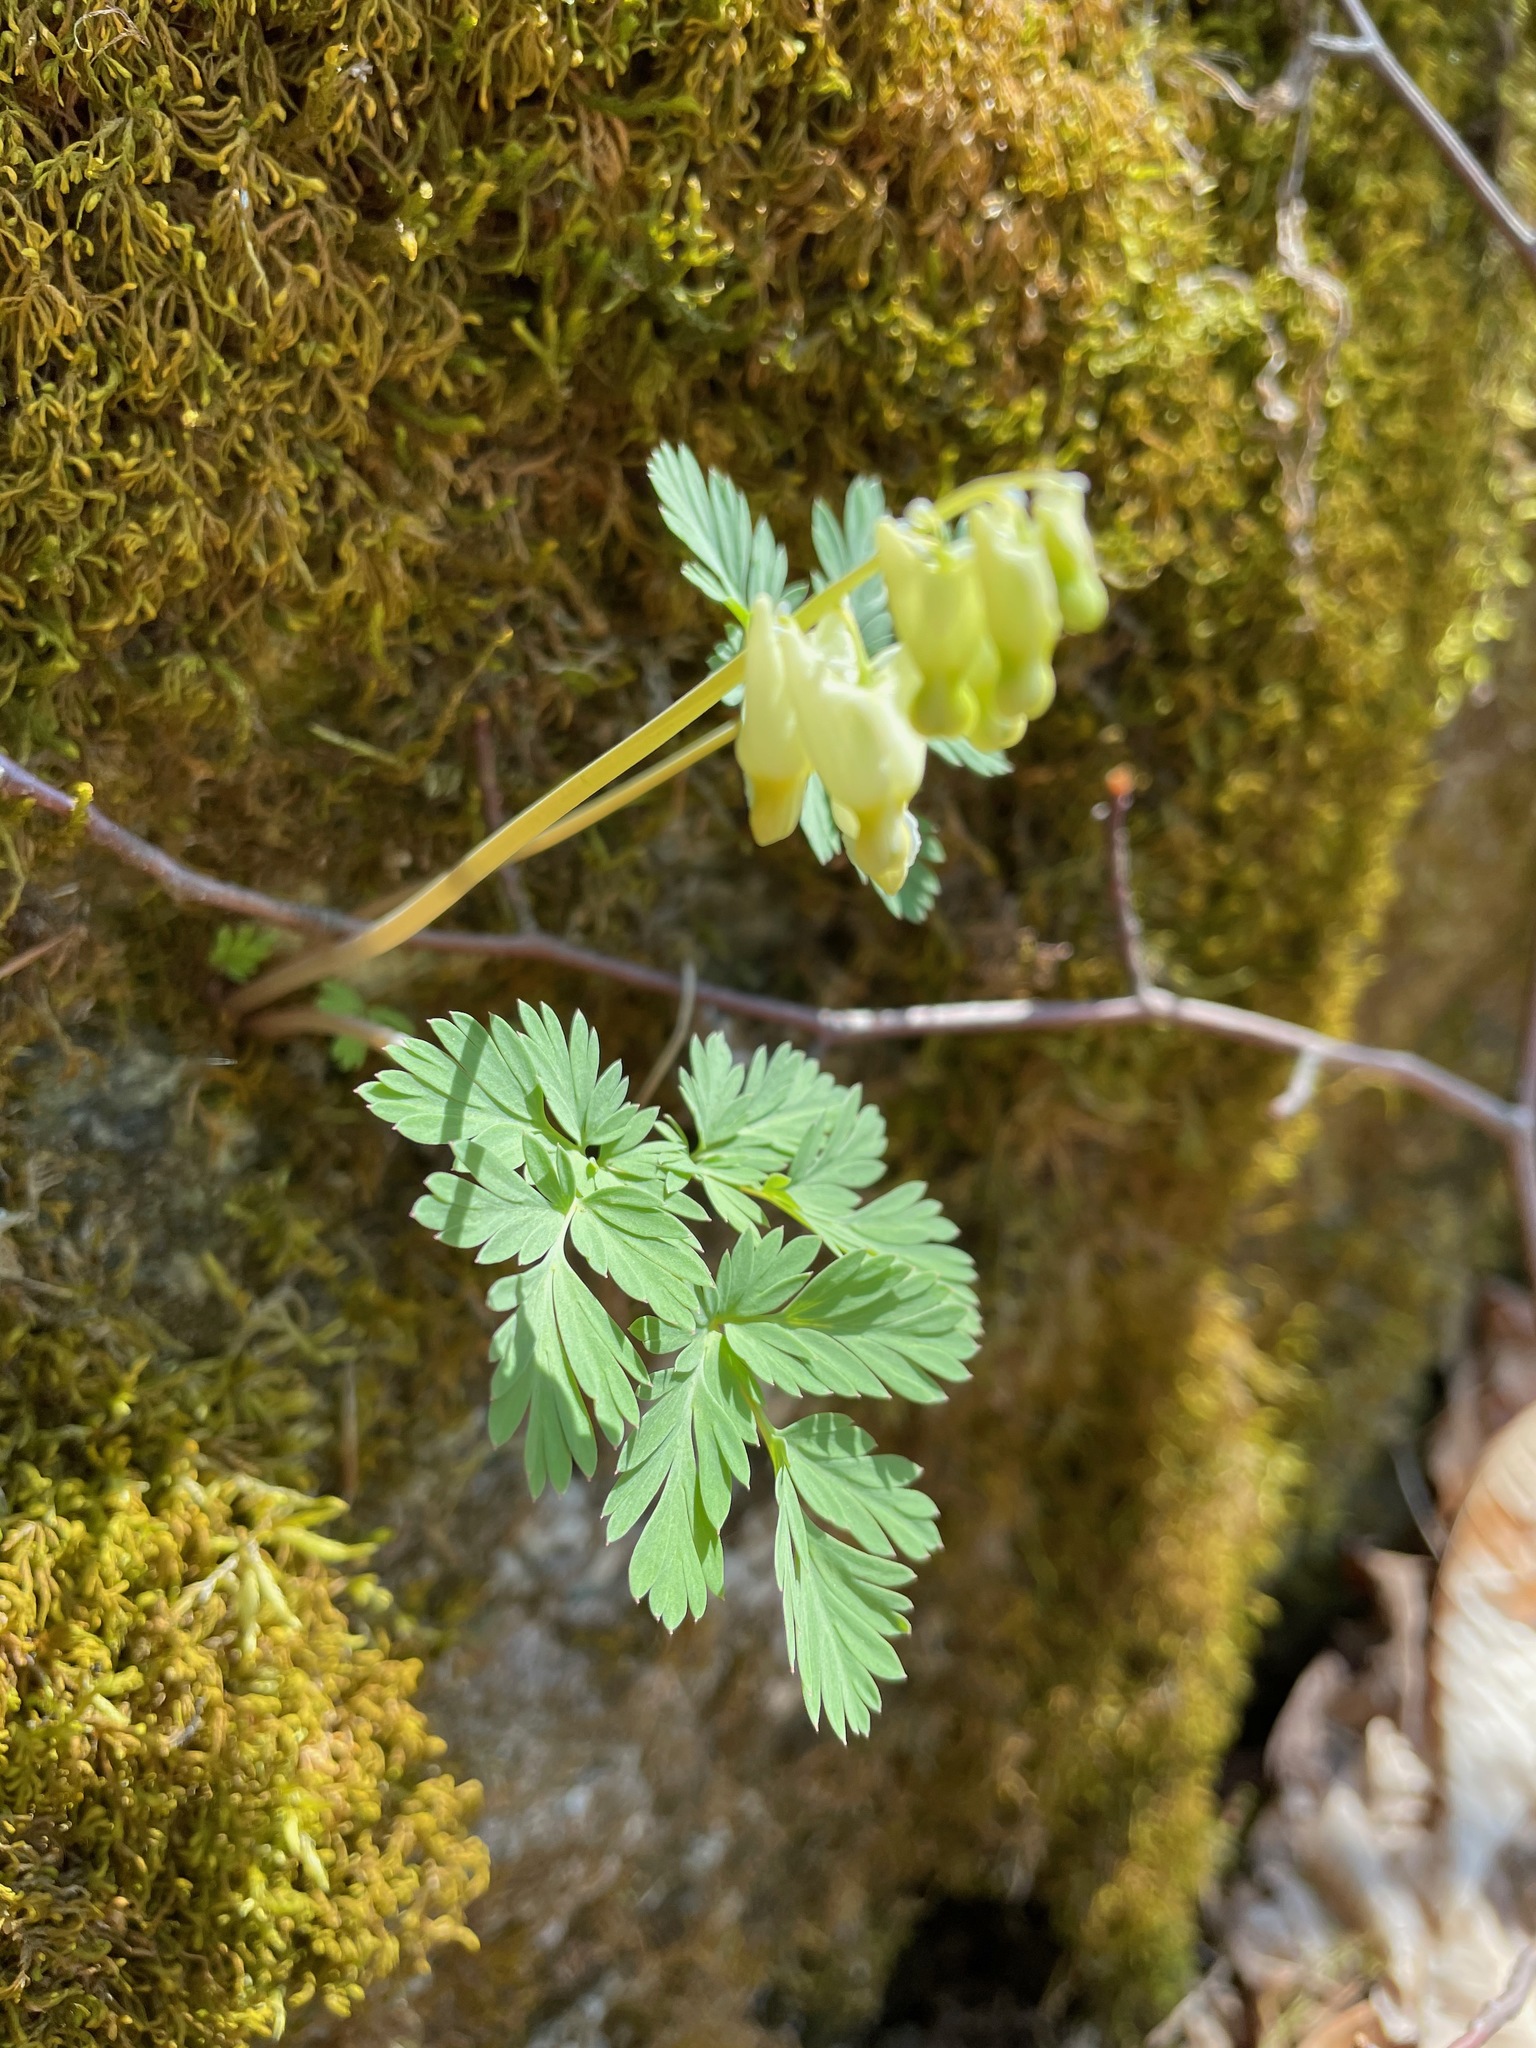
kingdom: Plantae
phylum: Tracheophyta
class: Magnoliopsida
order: Ranunculales
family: Papaveraceae
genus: Dicentra
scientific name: Dicentra cucullaria
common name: Dutchman's breeches
